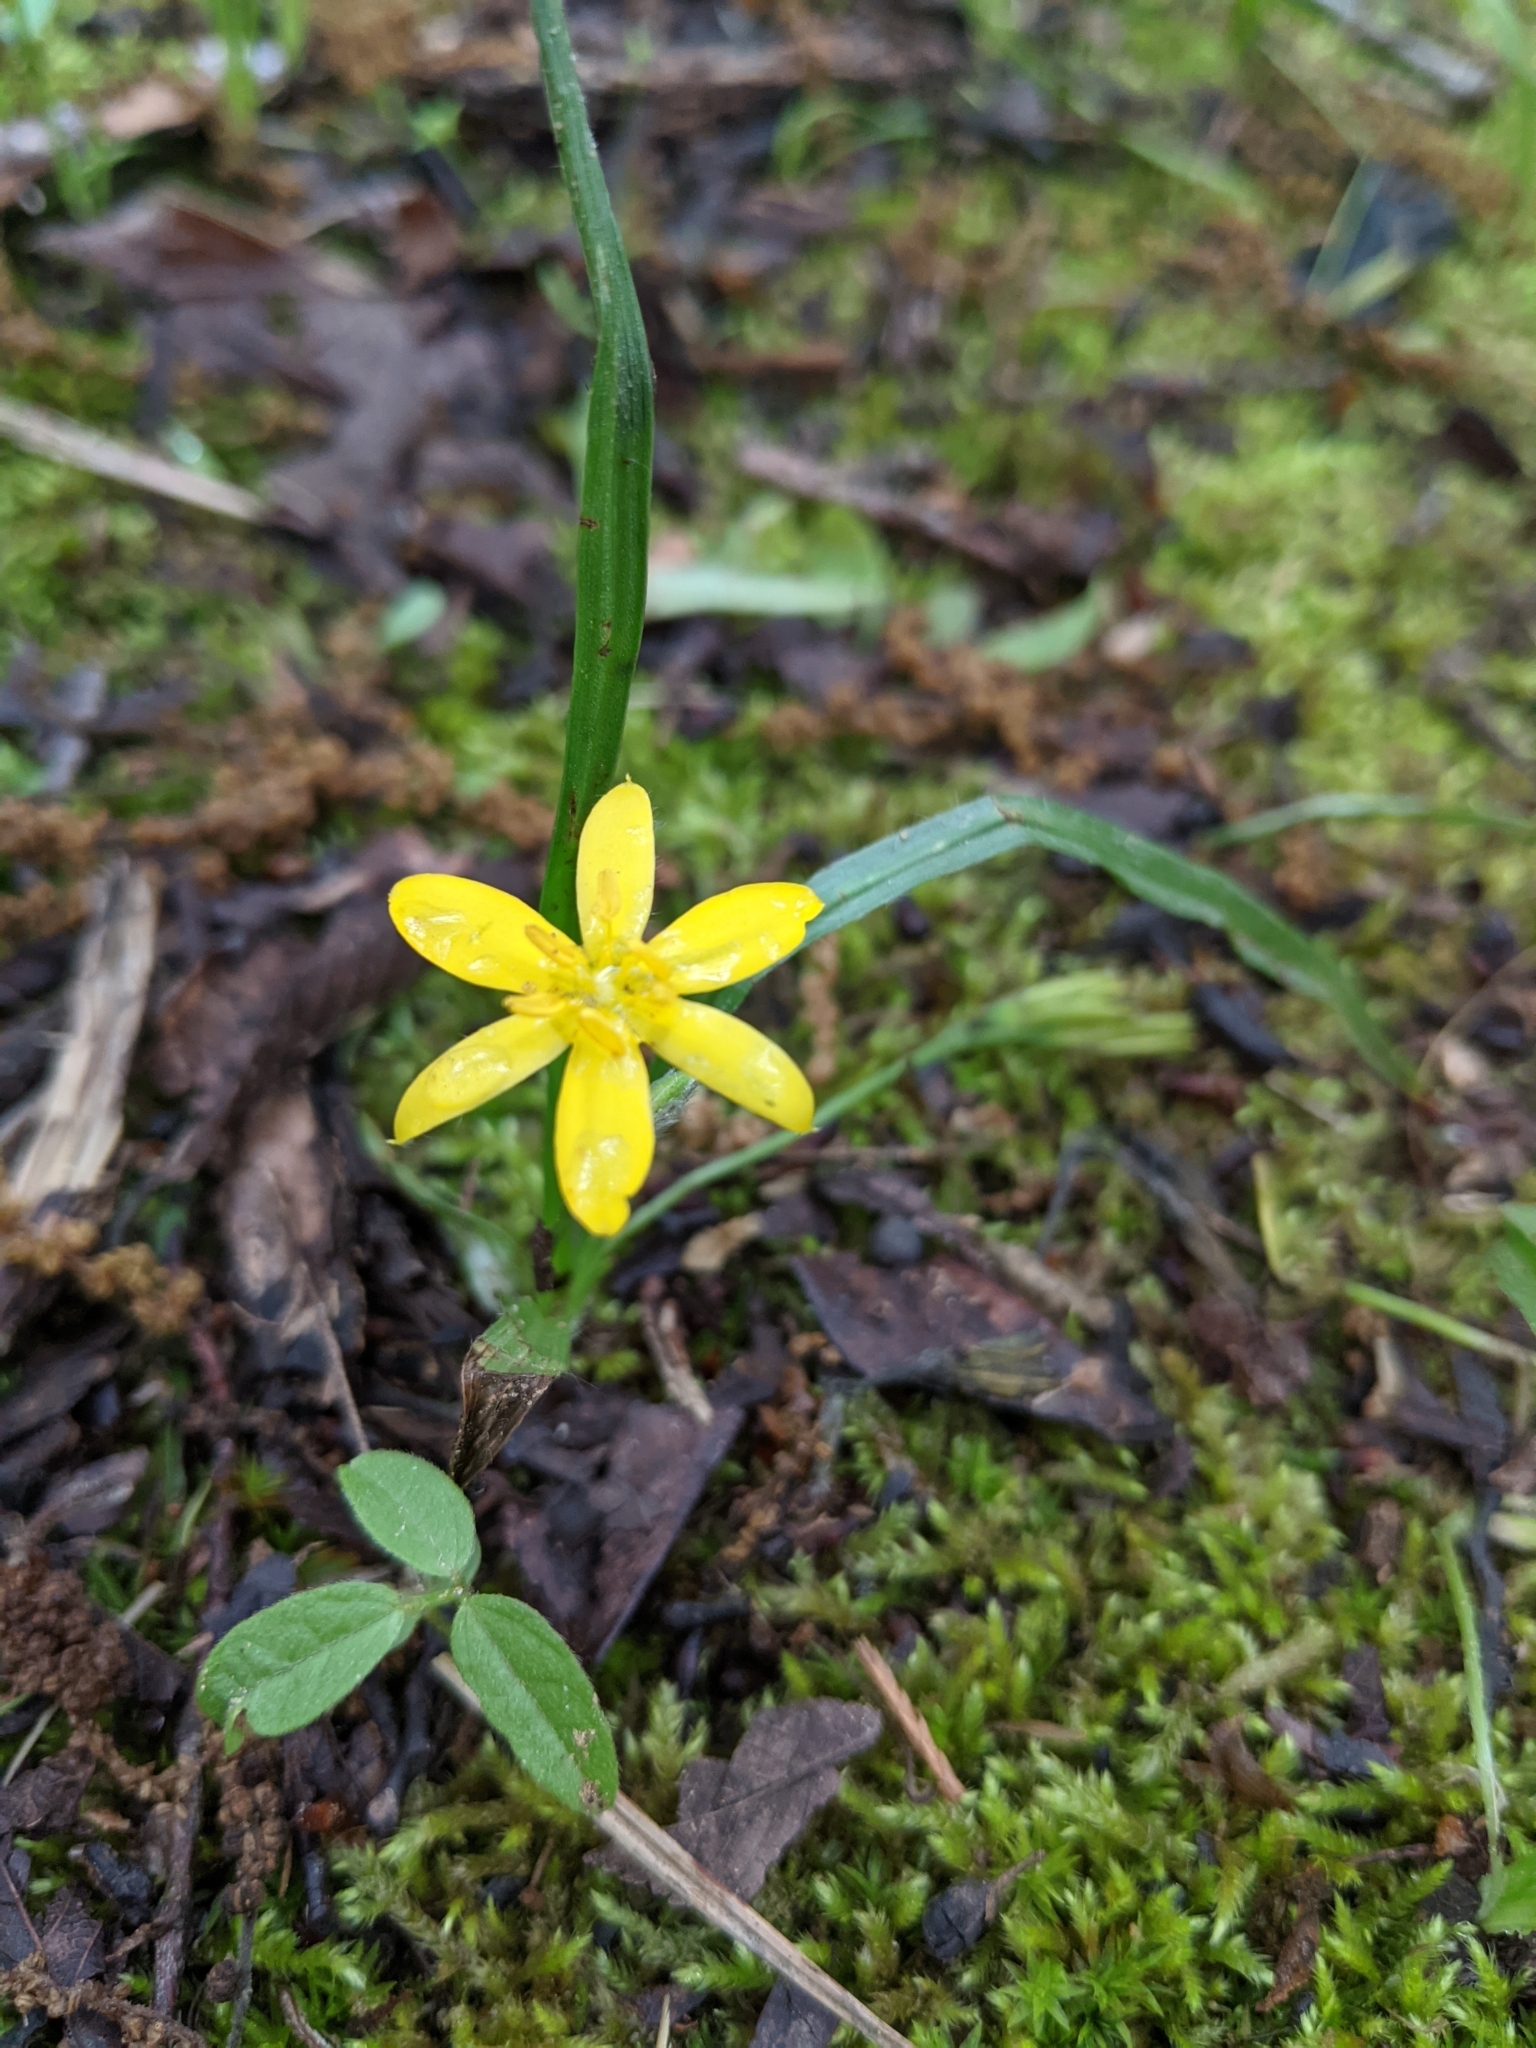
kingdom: Plantae
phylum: Tracheophyta
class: Liliopsida
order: Asparagales
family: Hypoxidaceae
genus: Hypoxis
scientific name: Hypoxis hirsuta
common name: Common goldstar
